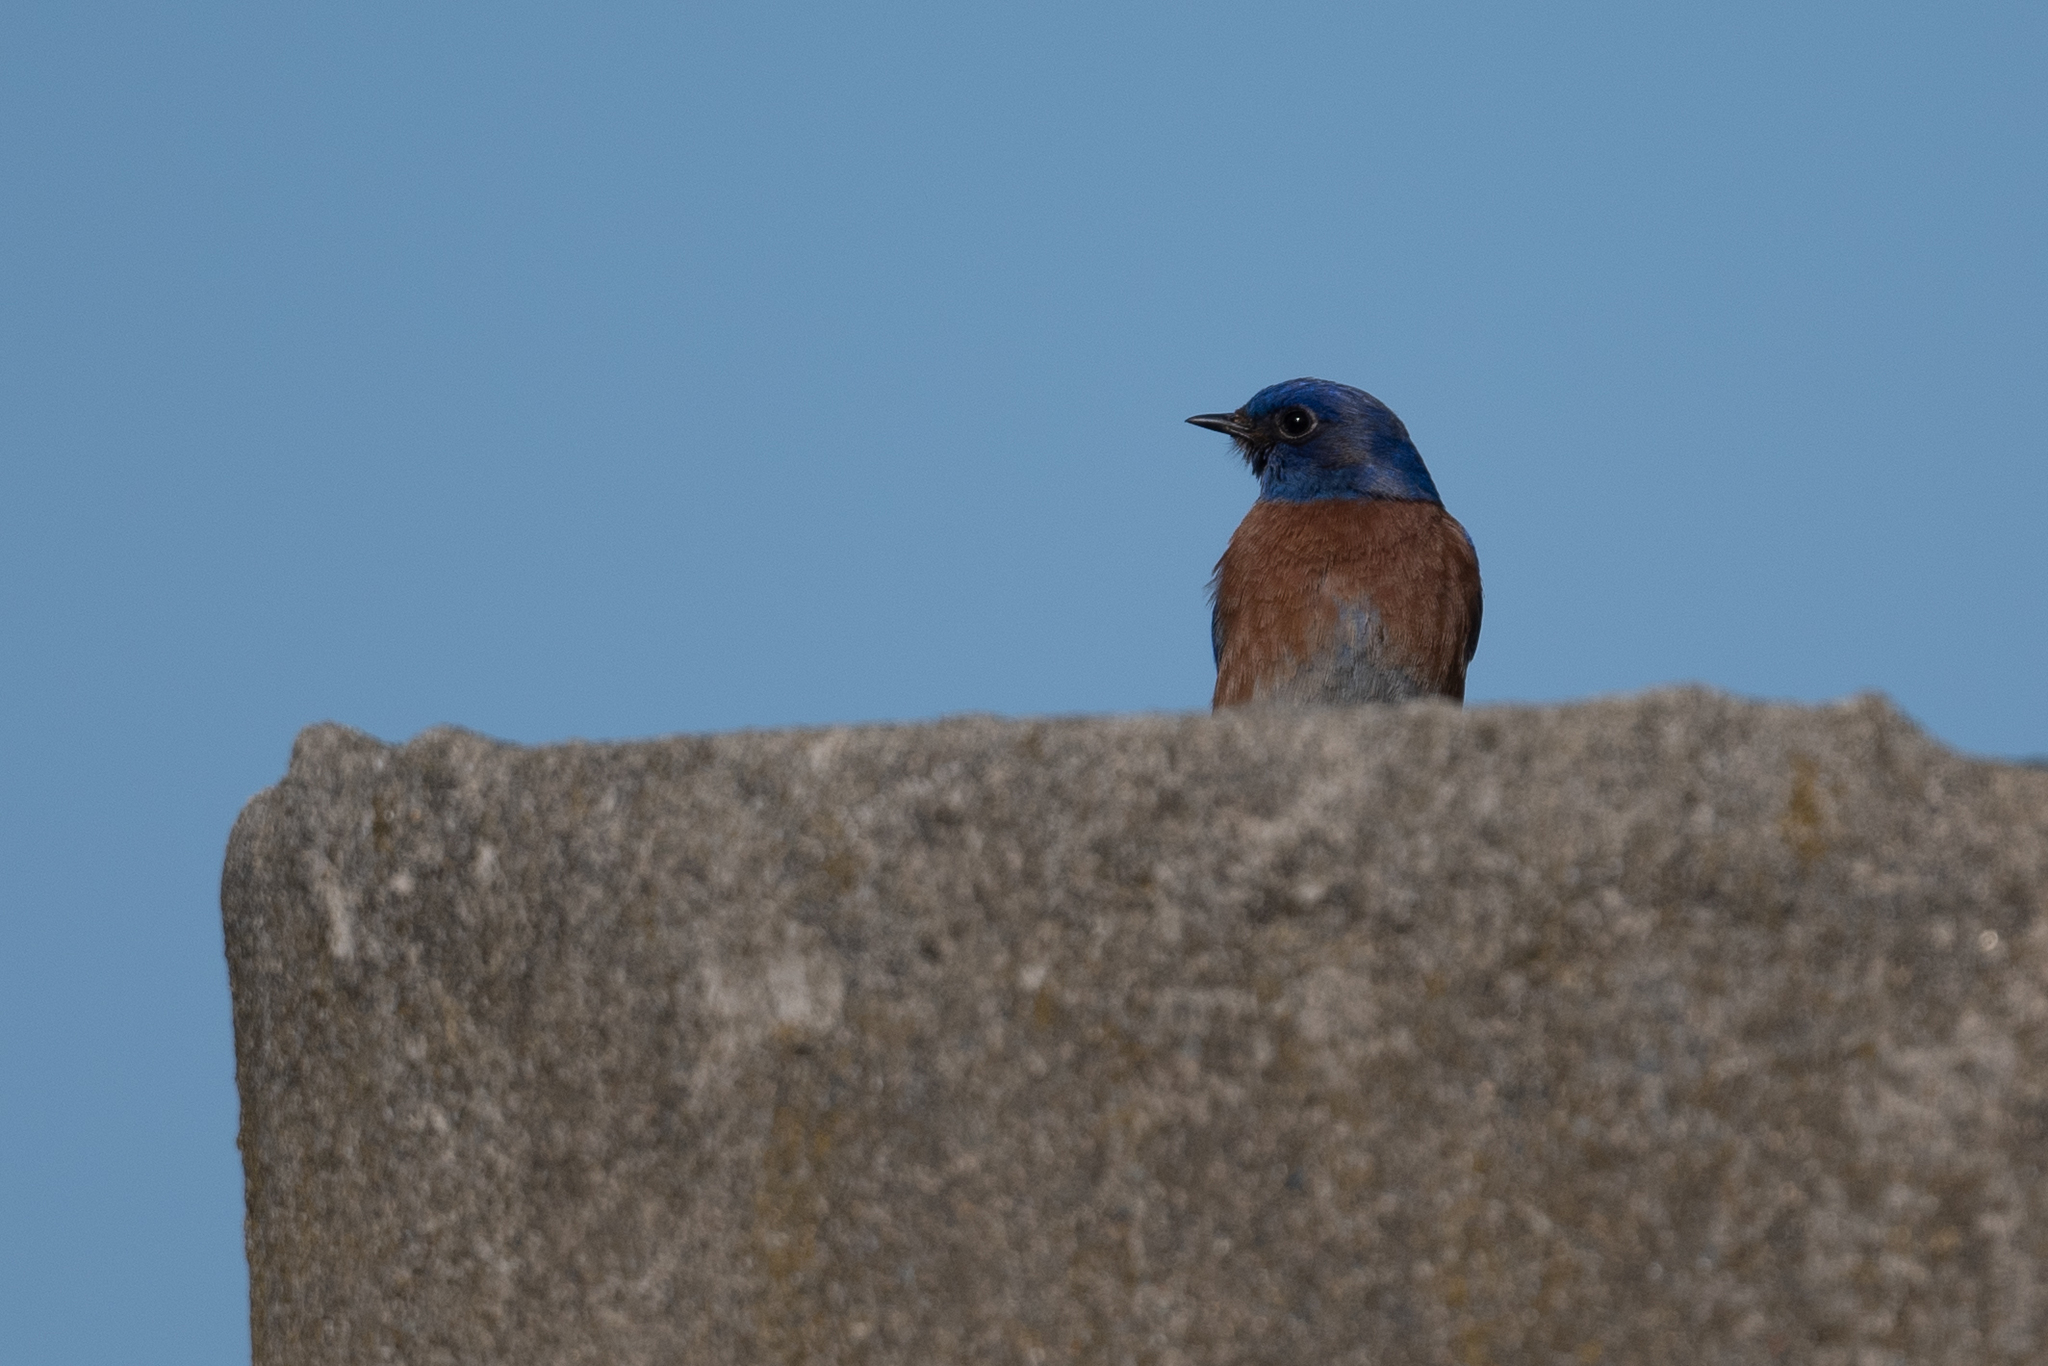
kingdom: Animalia
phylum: Chordata
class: Aves
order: Passeriformes
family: Turdidae
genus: Sialia
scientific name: Sialia mexicana
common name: Western bluebird
